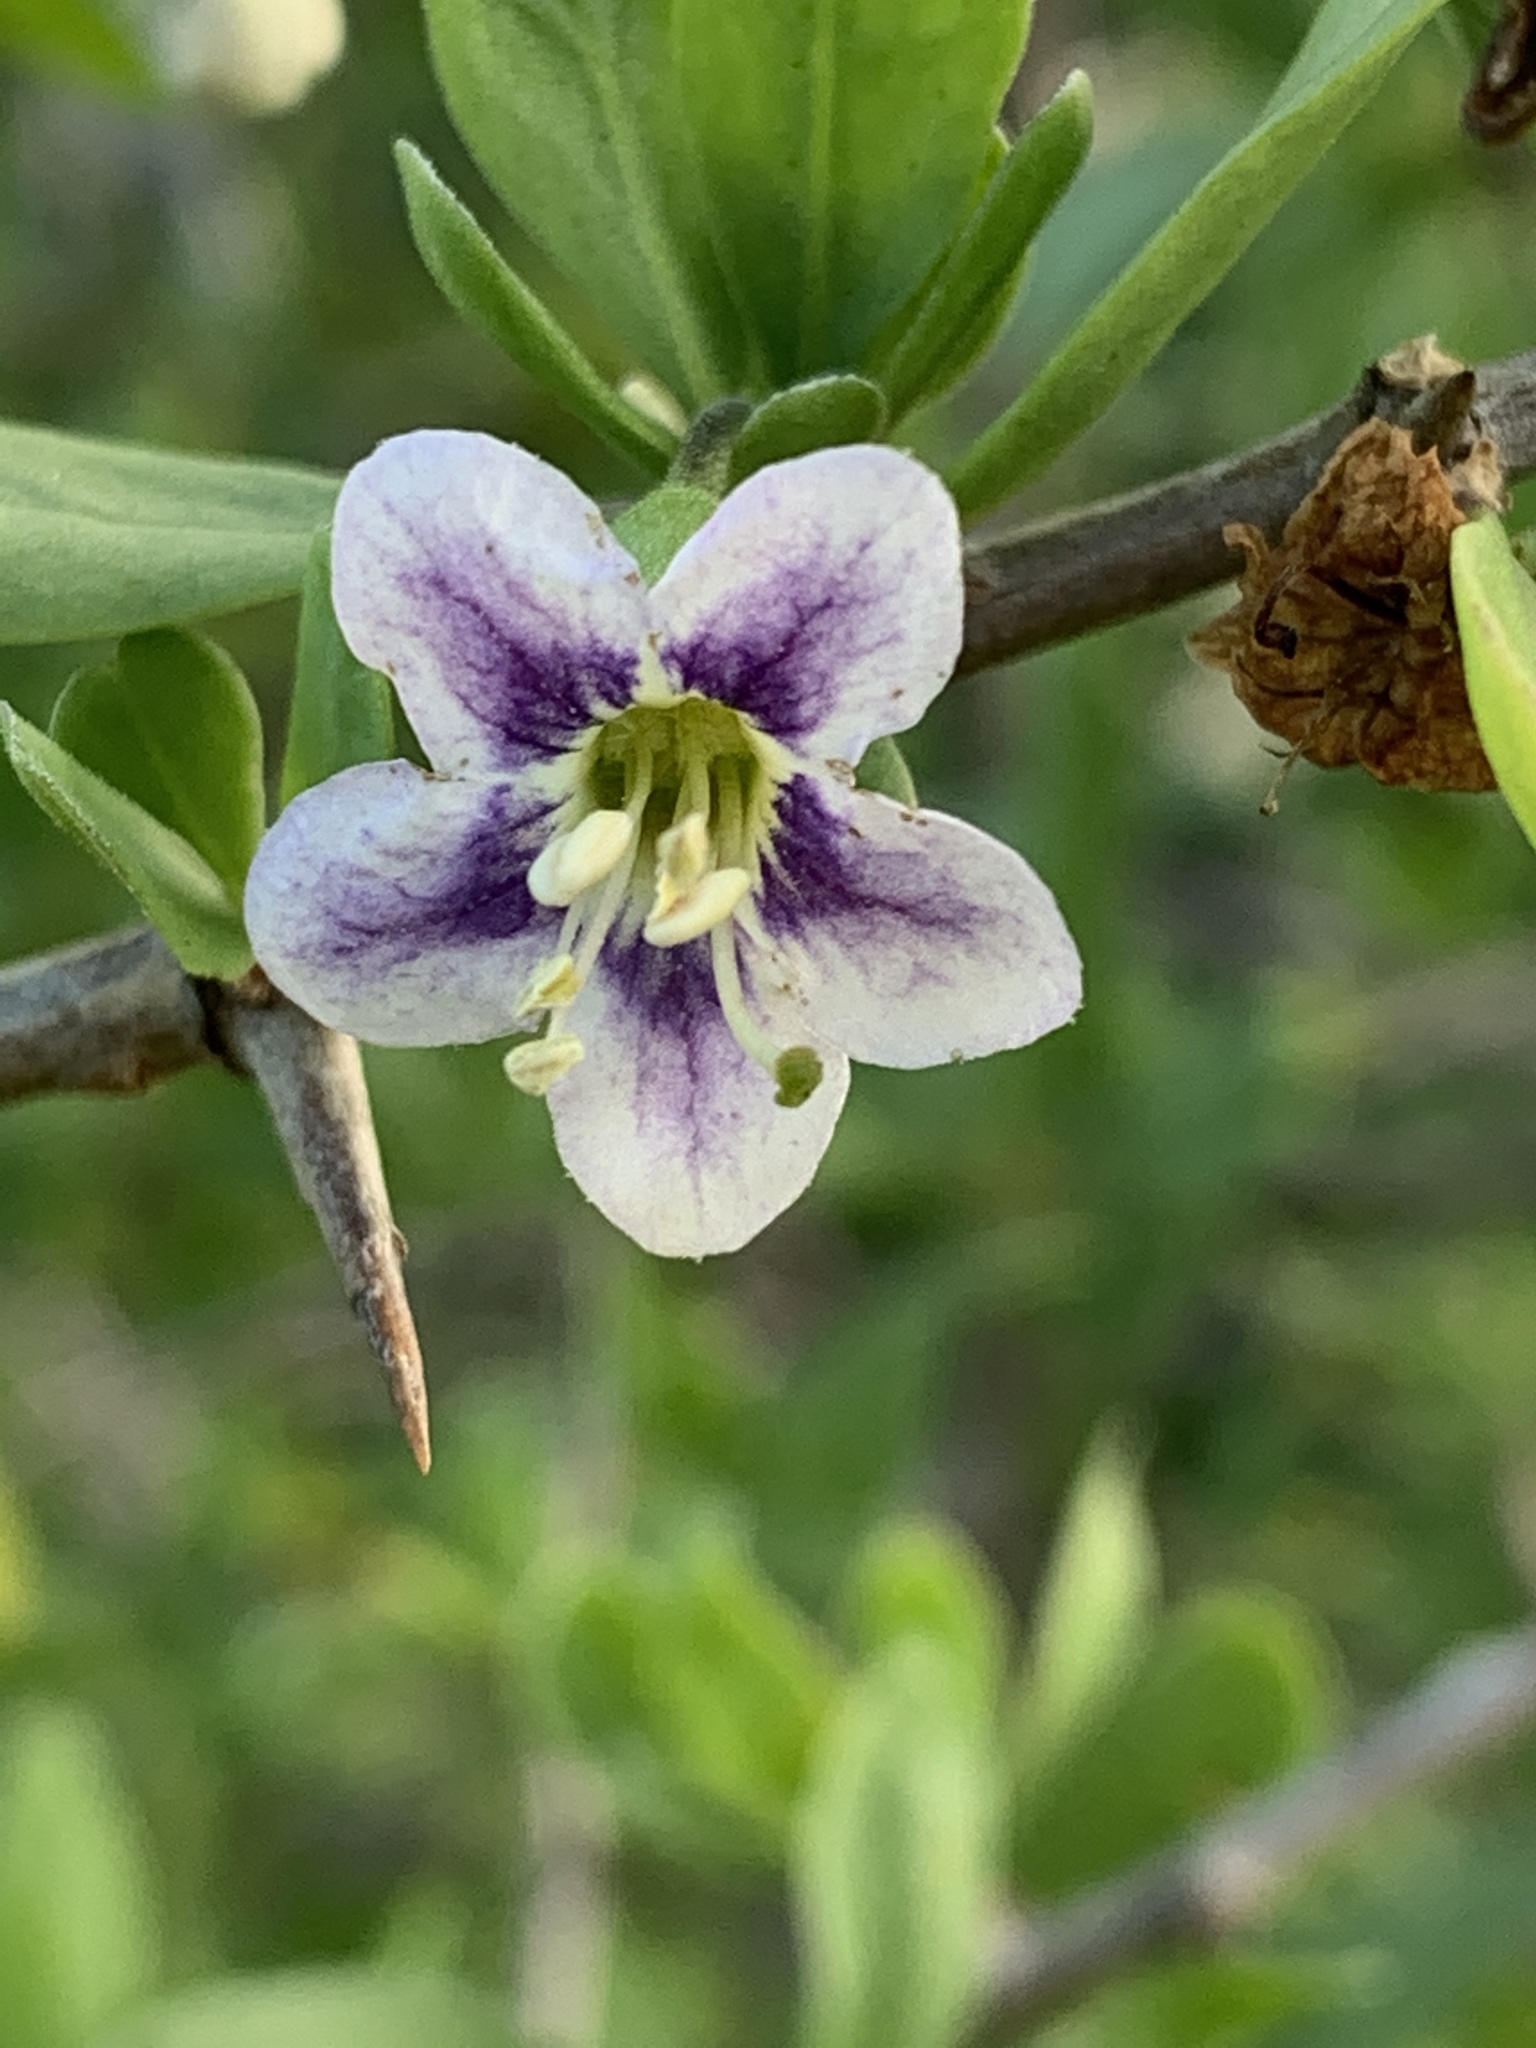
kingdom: Plantae
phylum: Tracheophyta
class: Magnoliopsida
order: Solanales
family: Solanaceae
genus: Lycium
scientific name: Lycium ferocissimum
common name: African boxthorn
